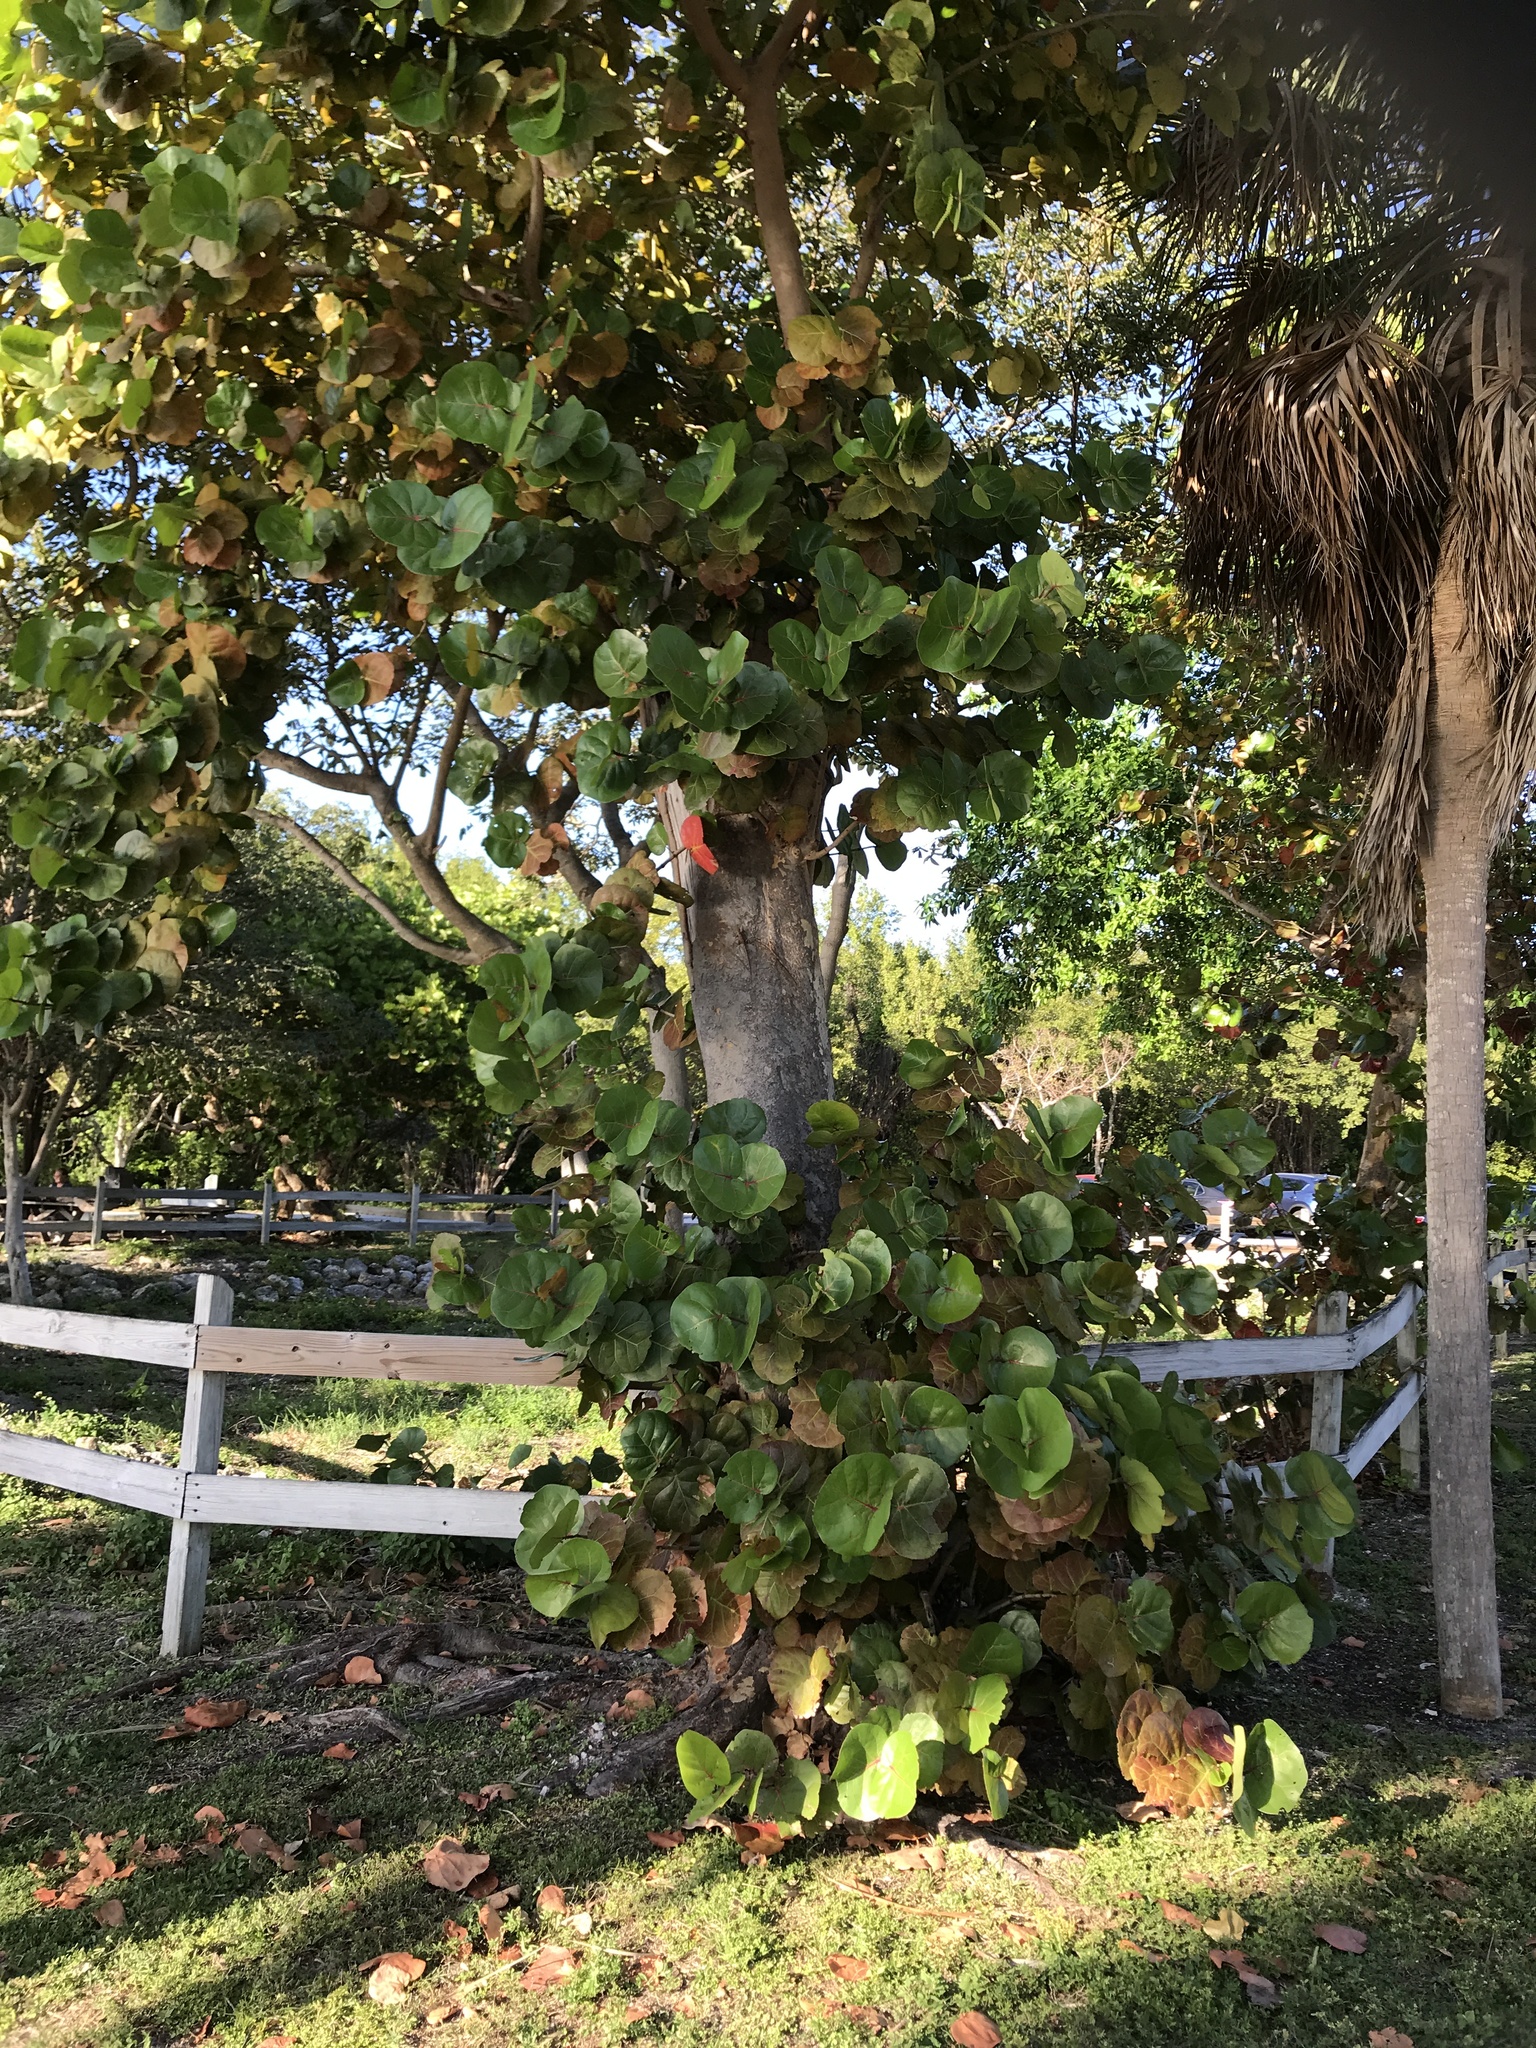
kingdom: Plantae
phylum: Tracheophyta
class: Magnoliopsida
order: Caryophyllales
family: Polygonaceae
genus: Coccoloba
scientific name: Coccoloba uvifera
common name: Seagrape
